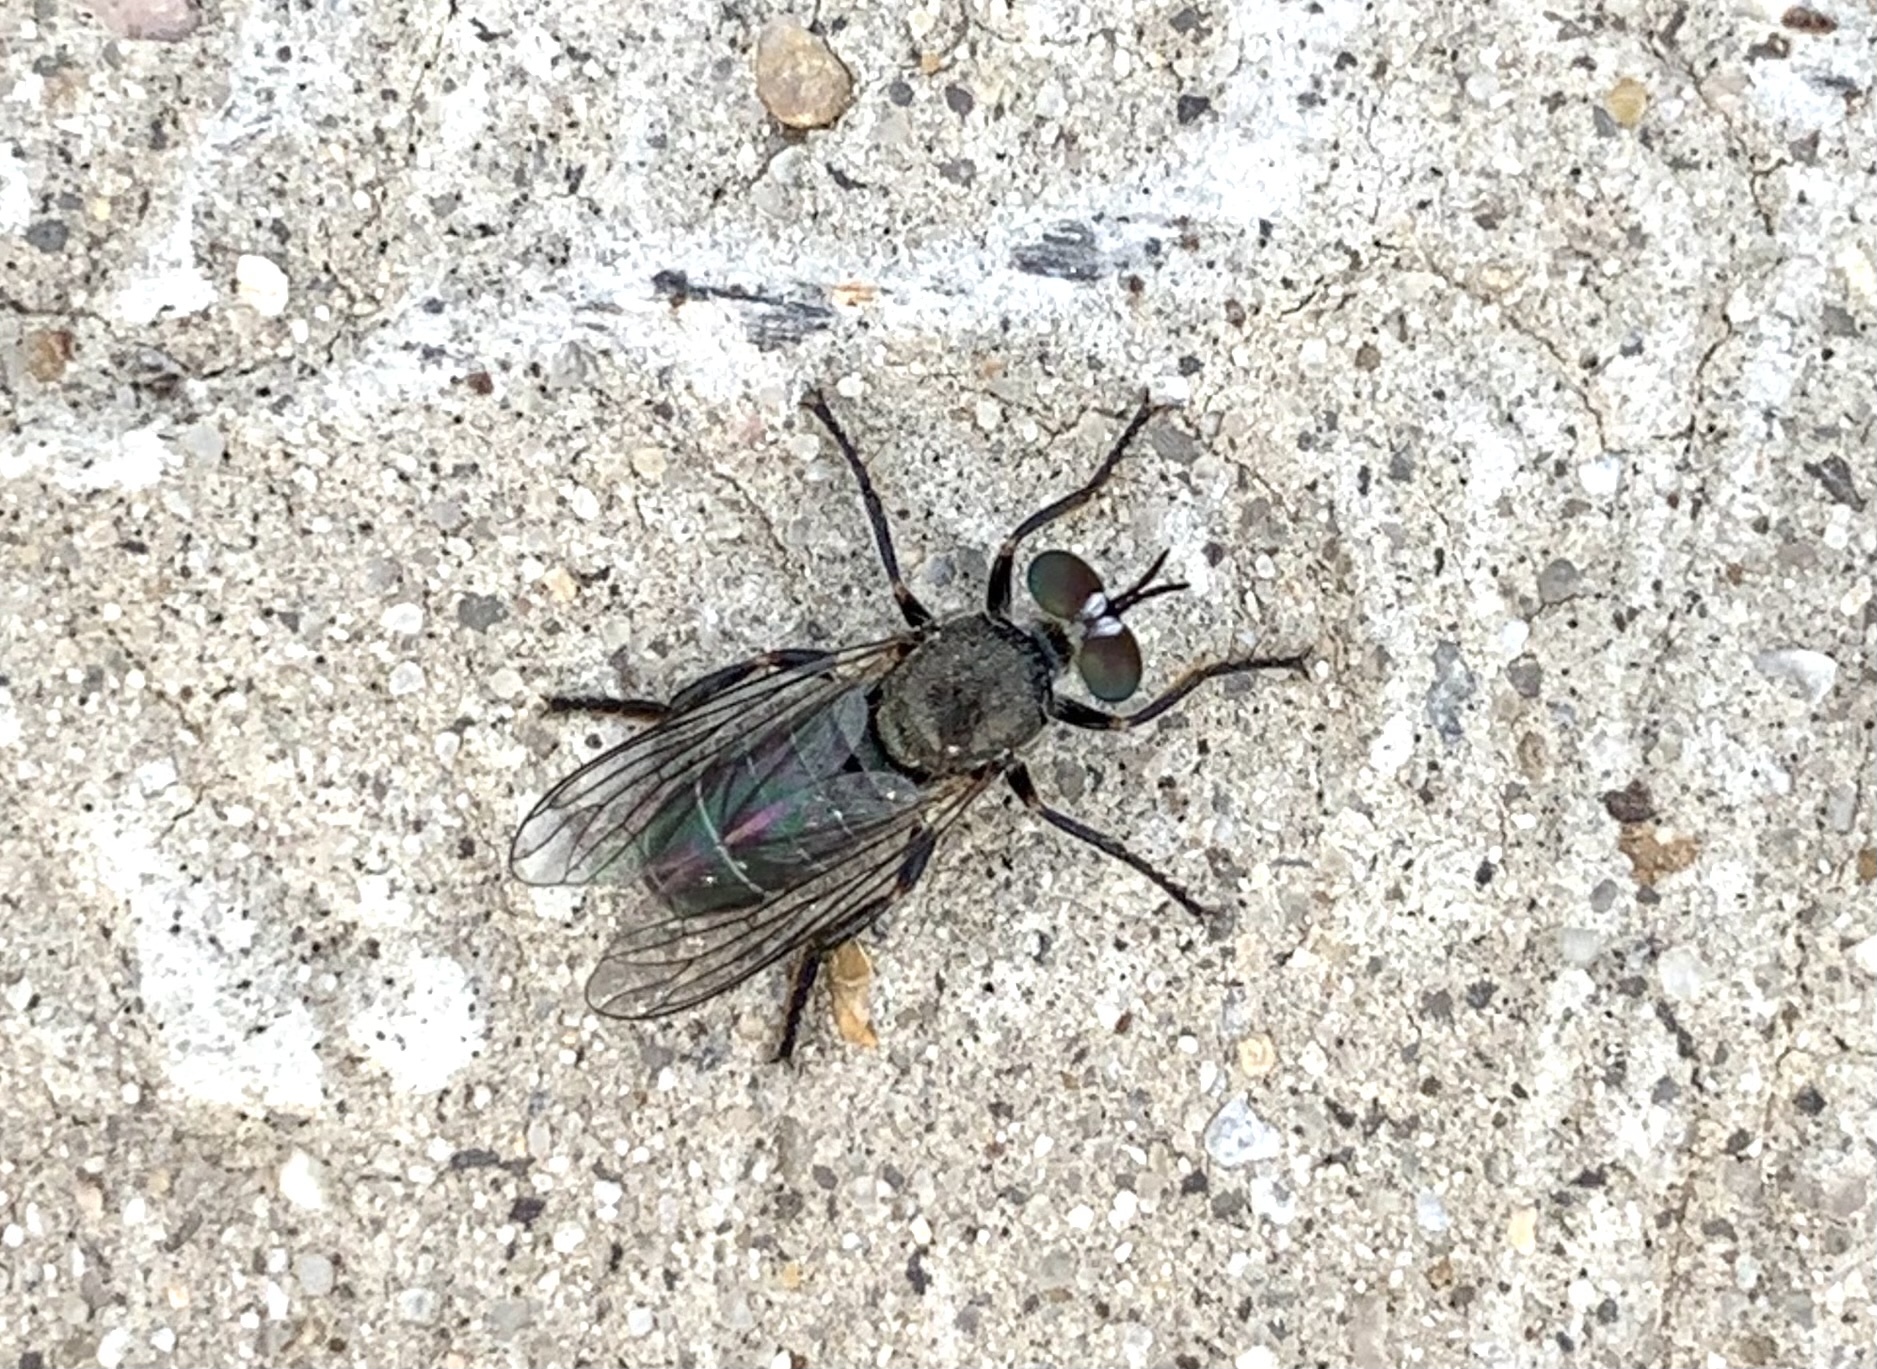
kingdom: Animalia
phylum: Arthropoda
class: Insecta
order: Diptera
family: Asilidae
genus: Atomosia
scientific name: Atomosia melanopogon
